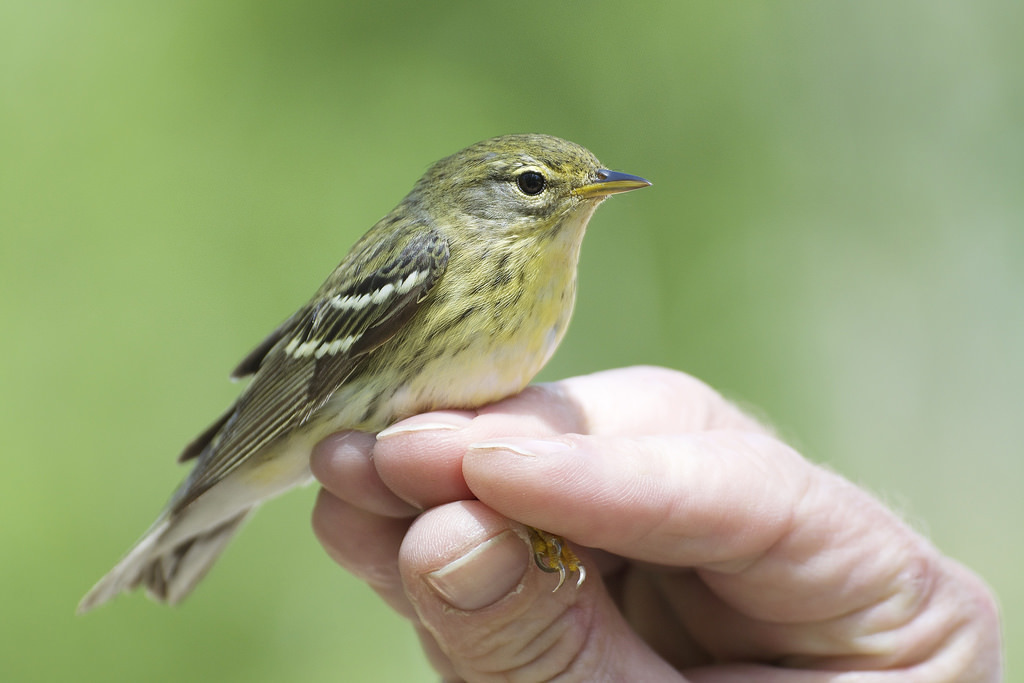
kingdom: Animalia
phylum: Chordata
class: Aves
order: Passeriformes
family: Parulidae
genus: Setophaga
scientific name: Setophaga striata
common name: Blackpoll warbler
